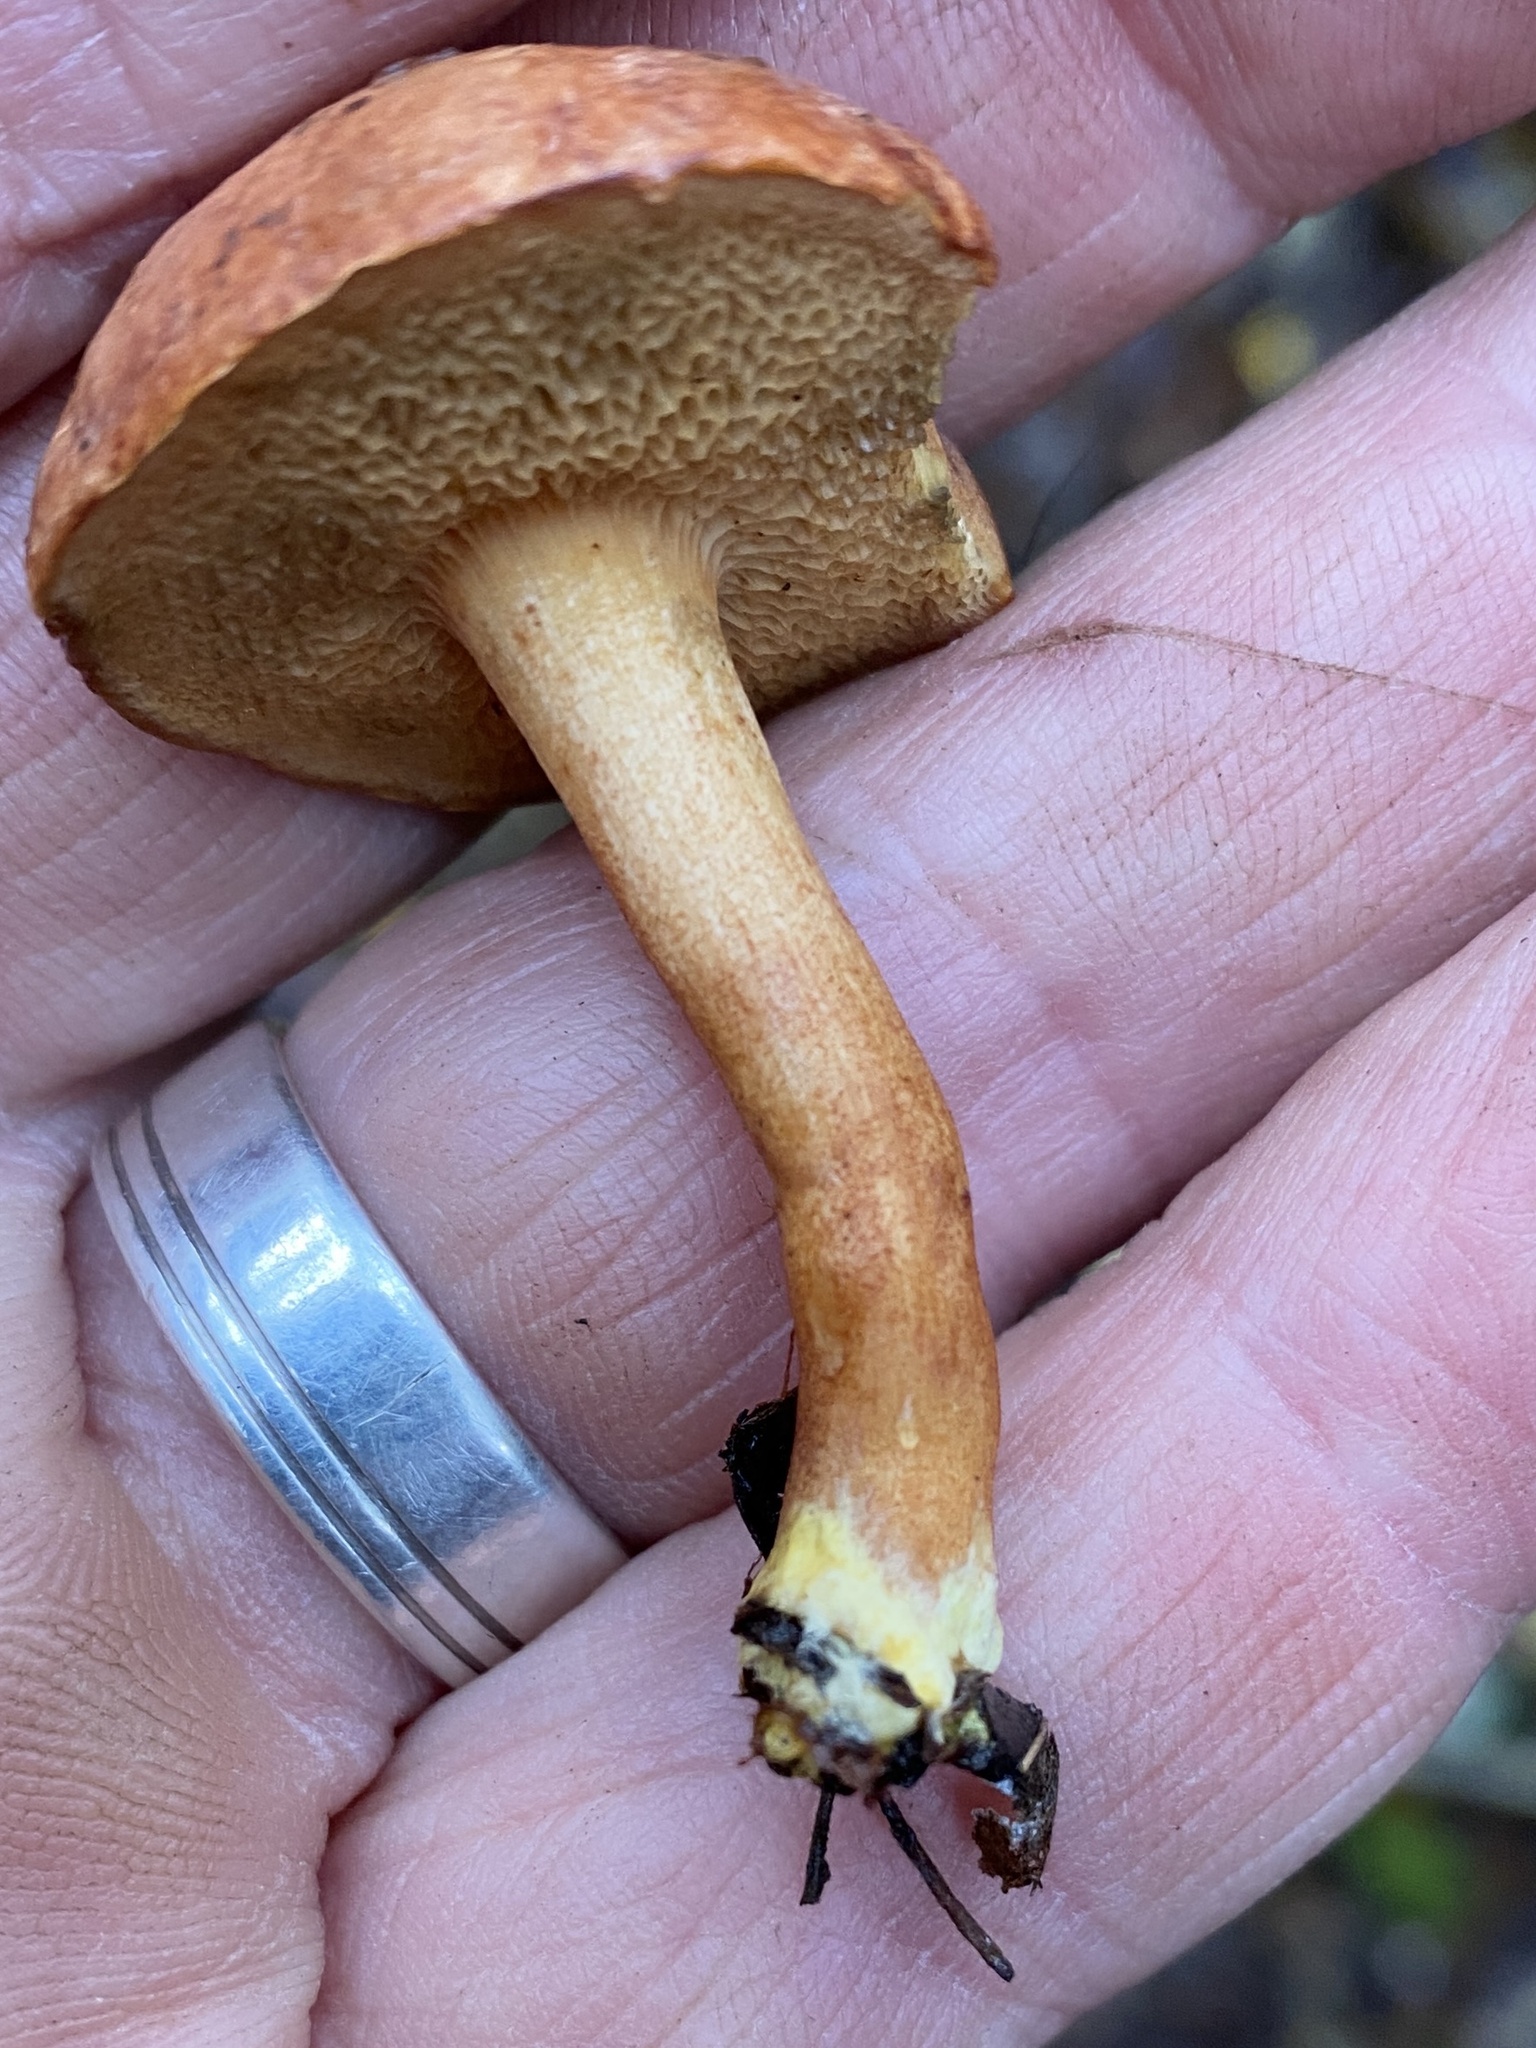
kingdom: Fungi
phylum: Basidiomycota
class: Agaricomycetes
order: Boletales
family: Boletaceae
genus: Chalciporus
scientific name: Chalciporus piperatus
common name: Peppery bolete
